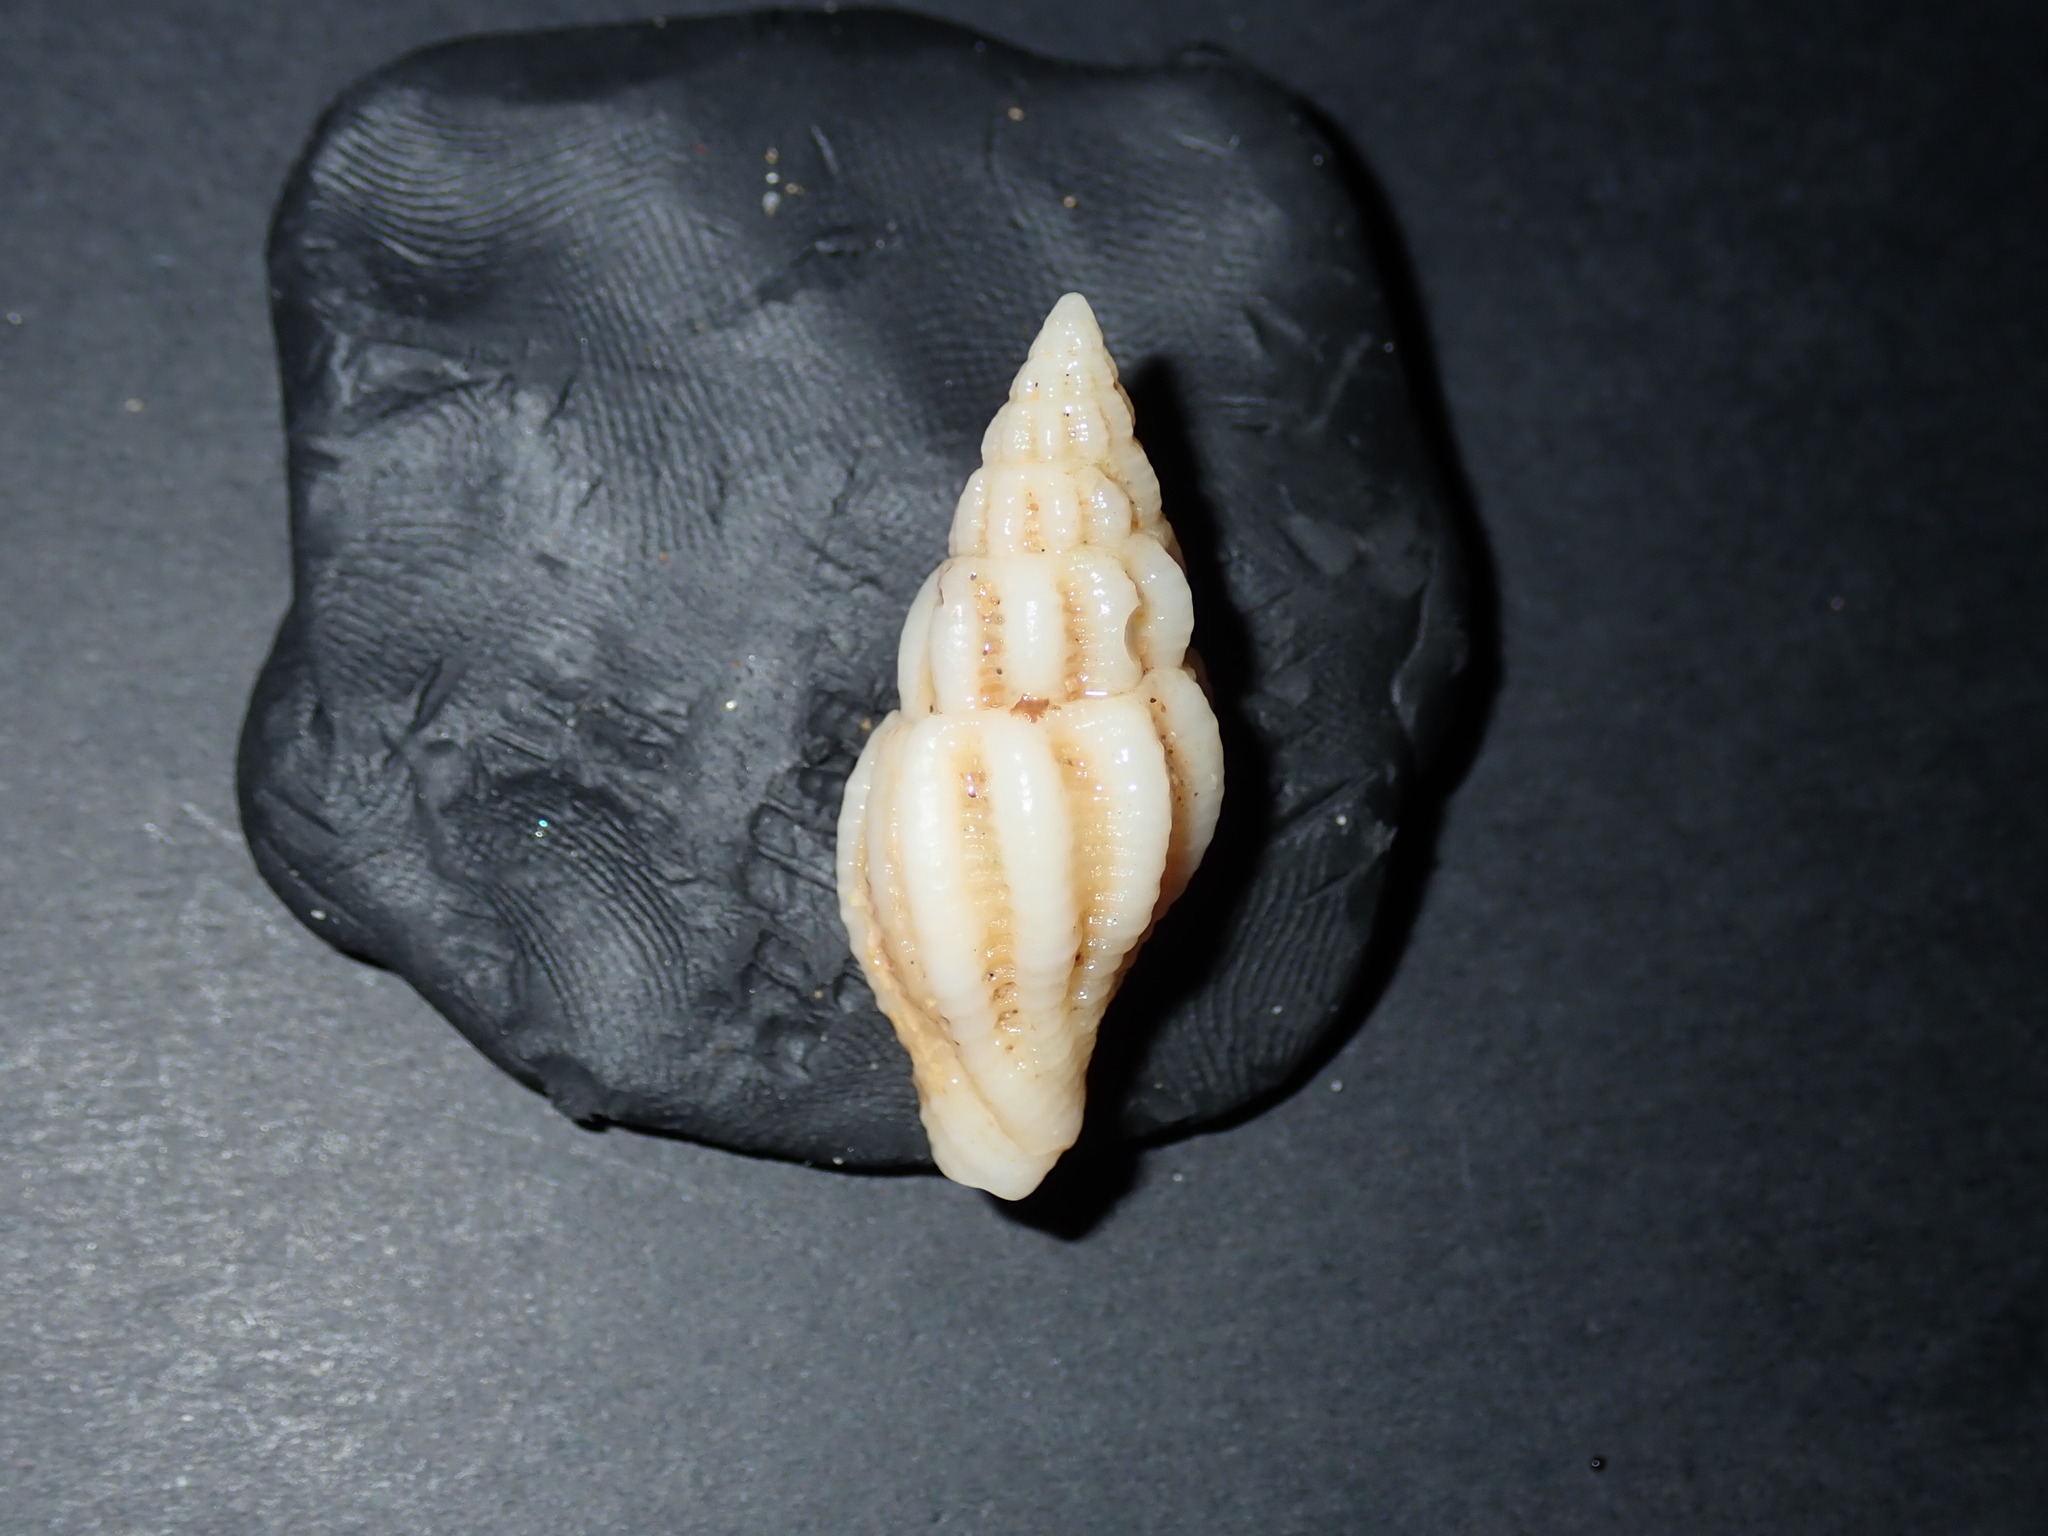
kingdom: Animalia
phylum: Mollusca
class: Gastropoda
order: Neogastropoda
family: Fasciolariidae
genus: Peristernia
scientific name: Peristernia reincarnata
